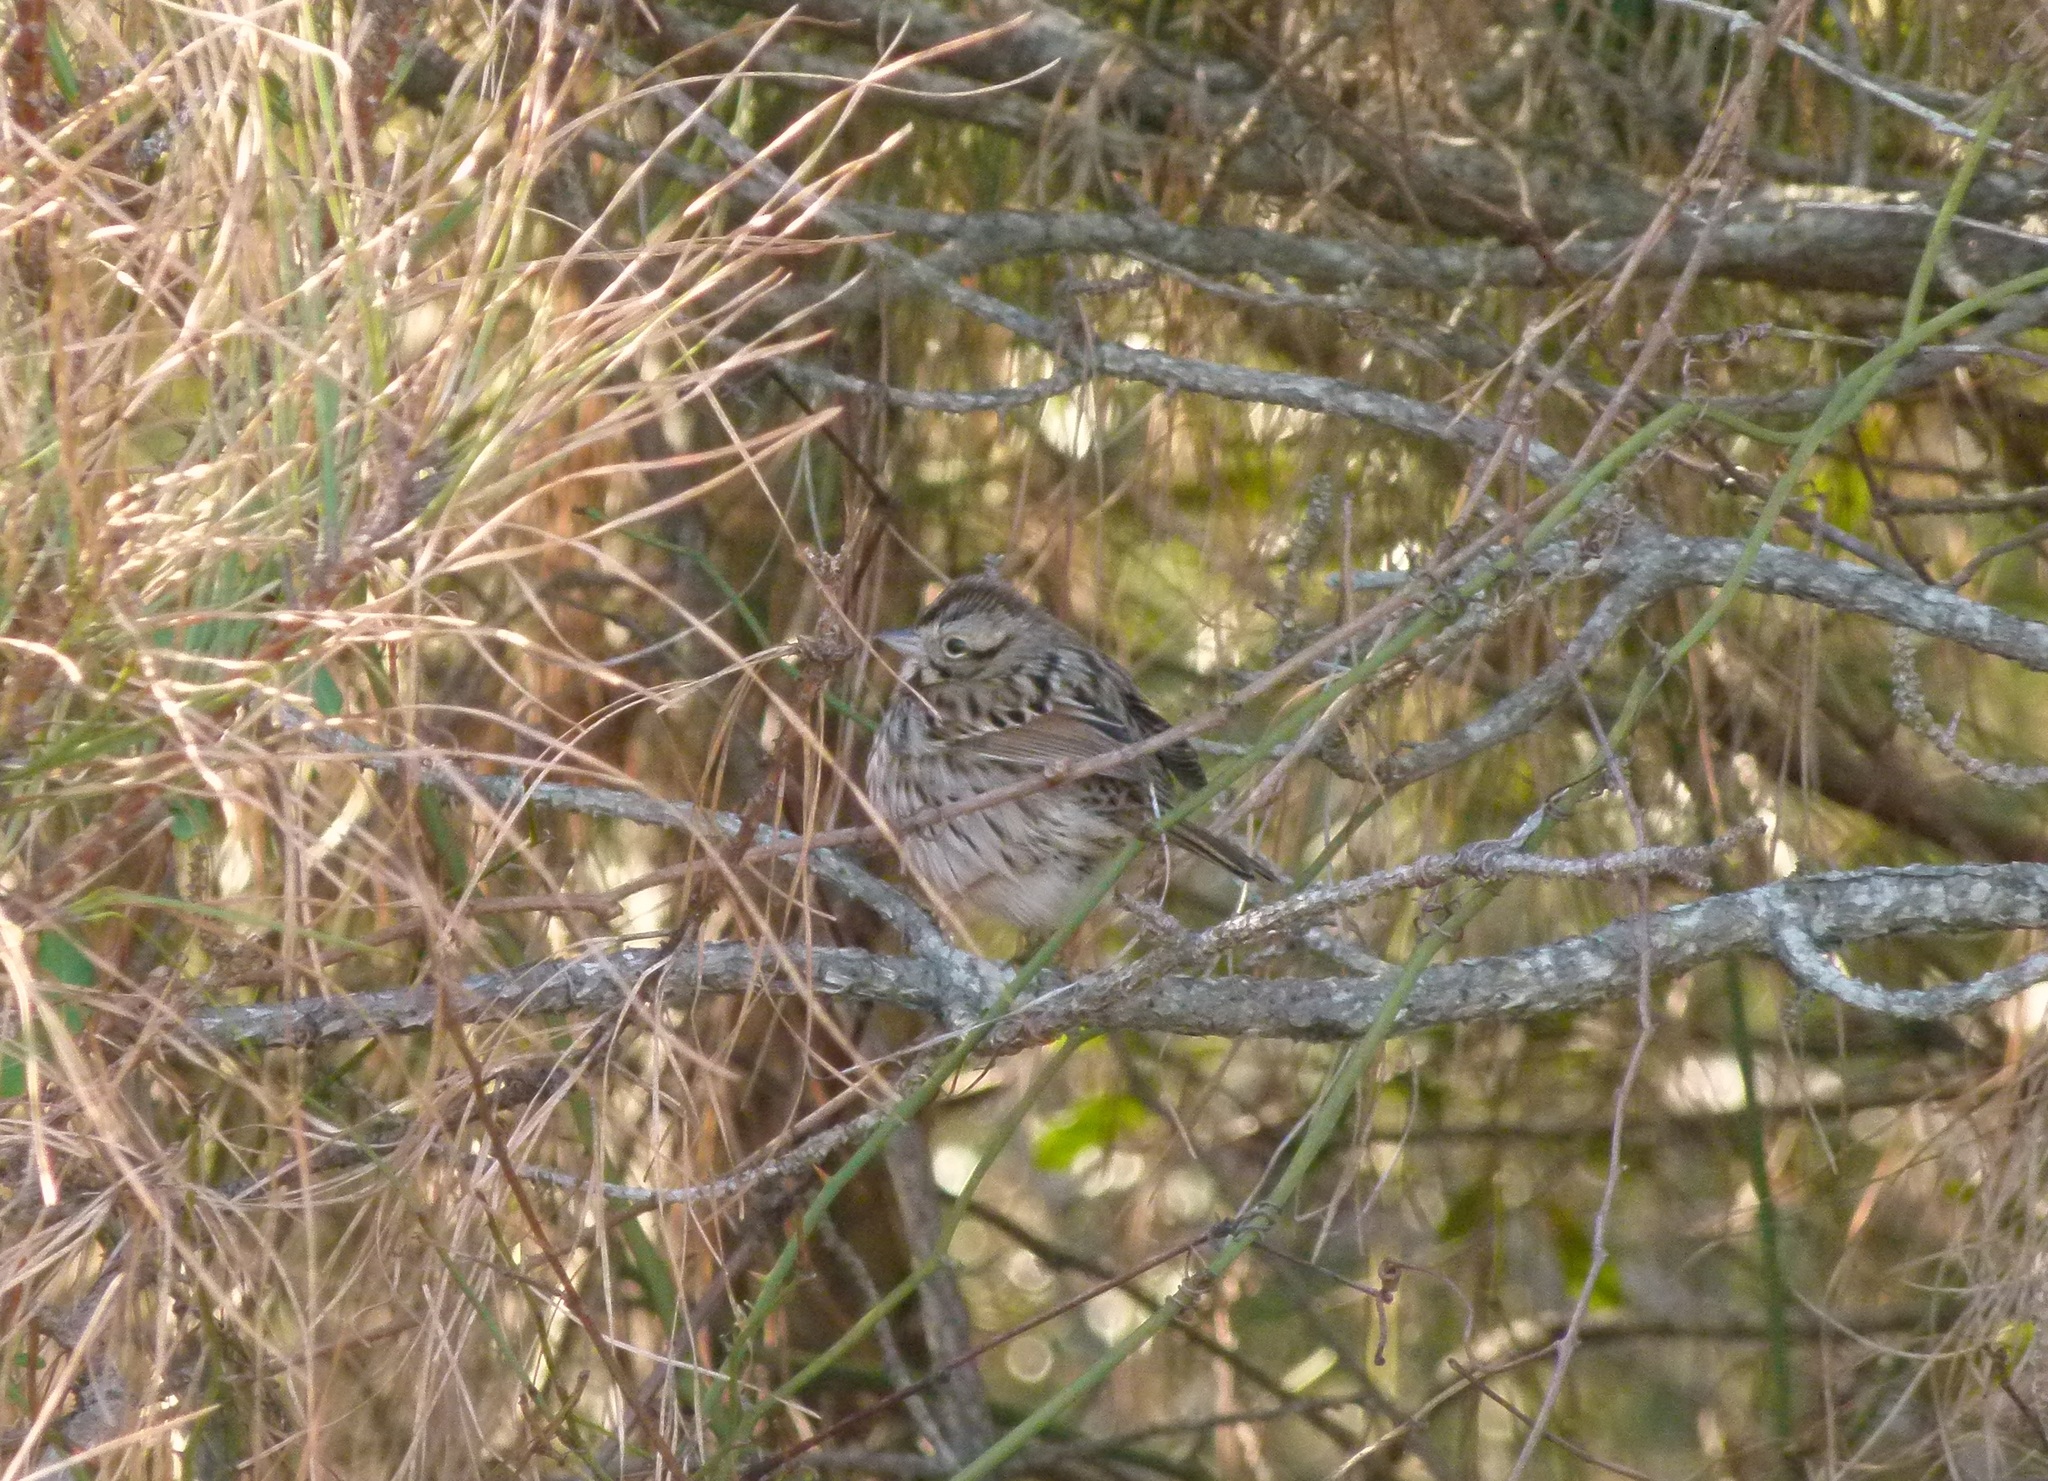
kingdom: Animalia
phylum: Chordata
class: Aves
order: Passeriformes
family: Passerellidae
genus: Melospiza
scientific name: Melospiza melodia
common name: Song sparrow
